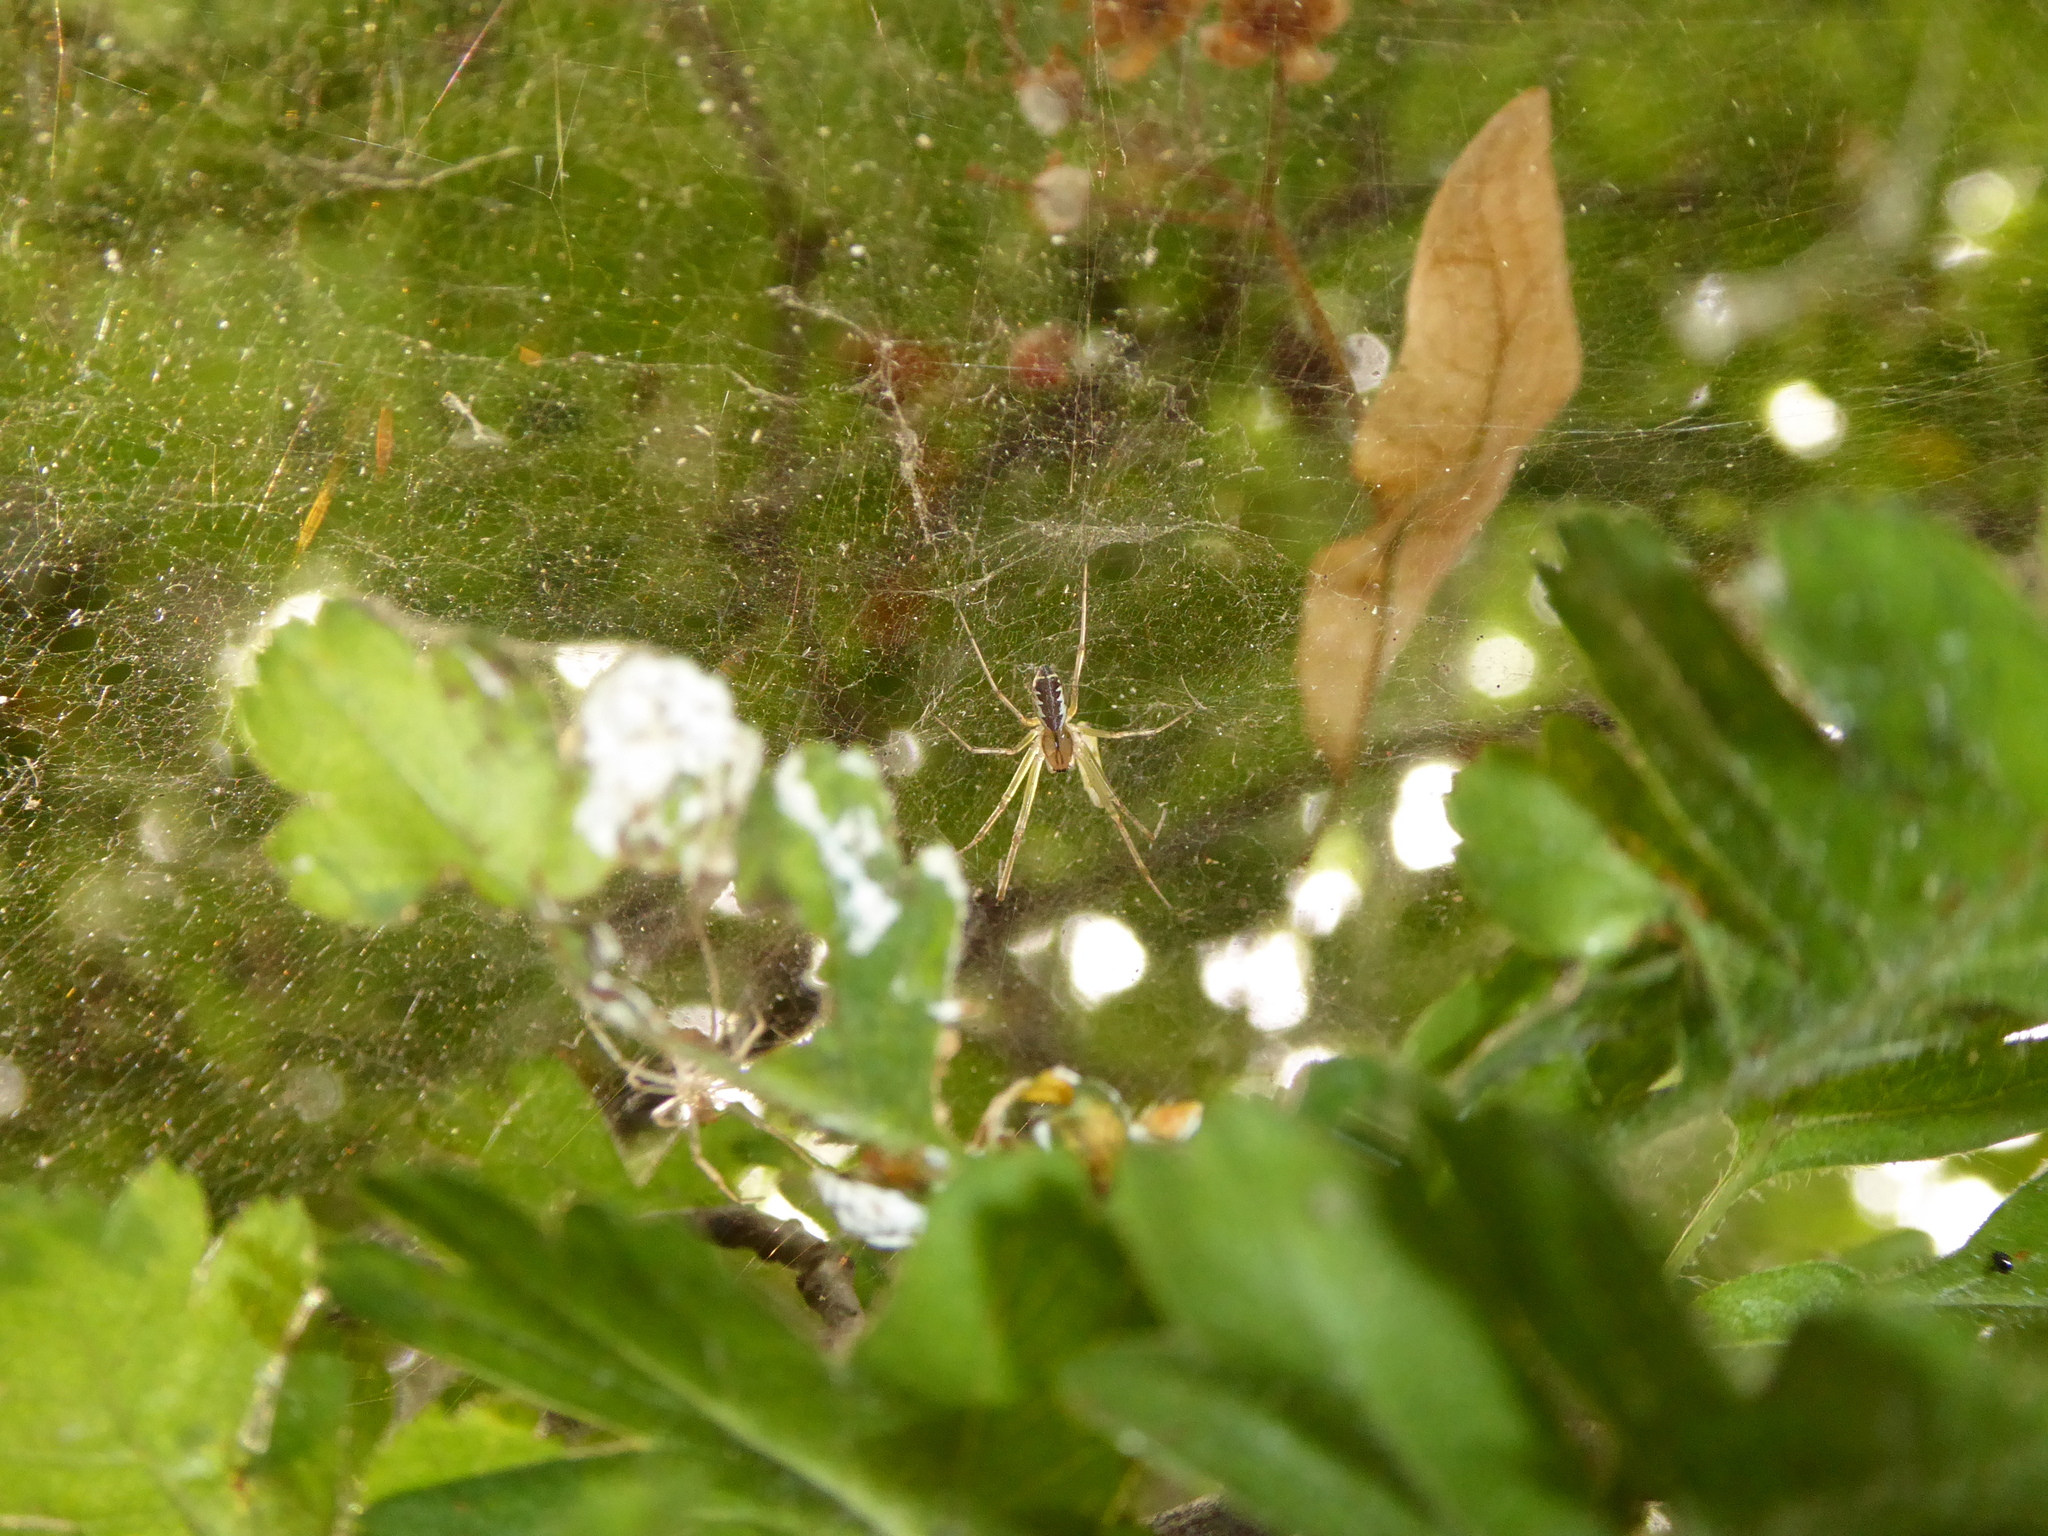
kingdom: Animalia
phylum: Arthropoda
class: Arachnida
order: Araneae
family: Linyphiidae
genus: Linyphia
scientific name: Linyphia triangularis
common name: Money spider
